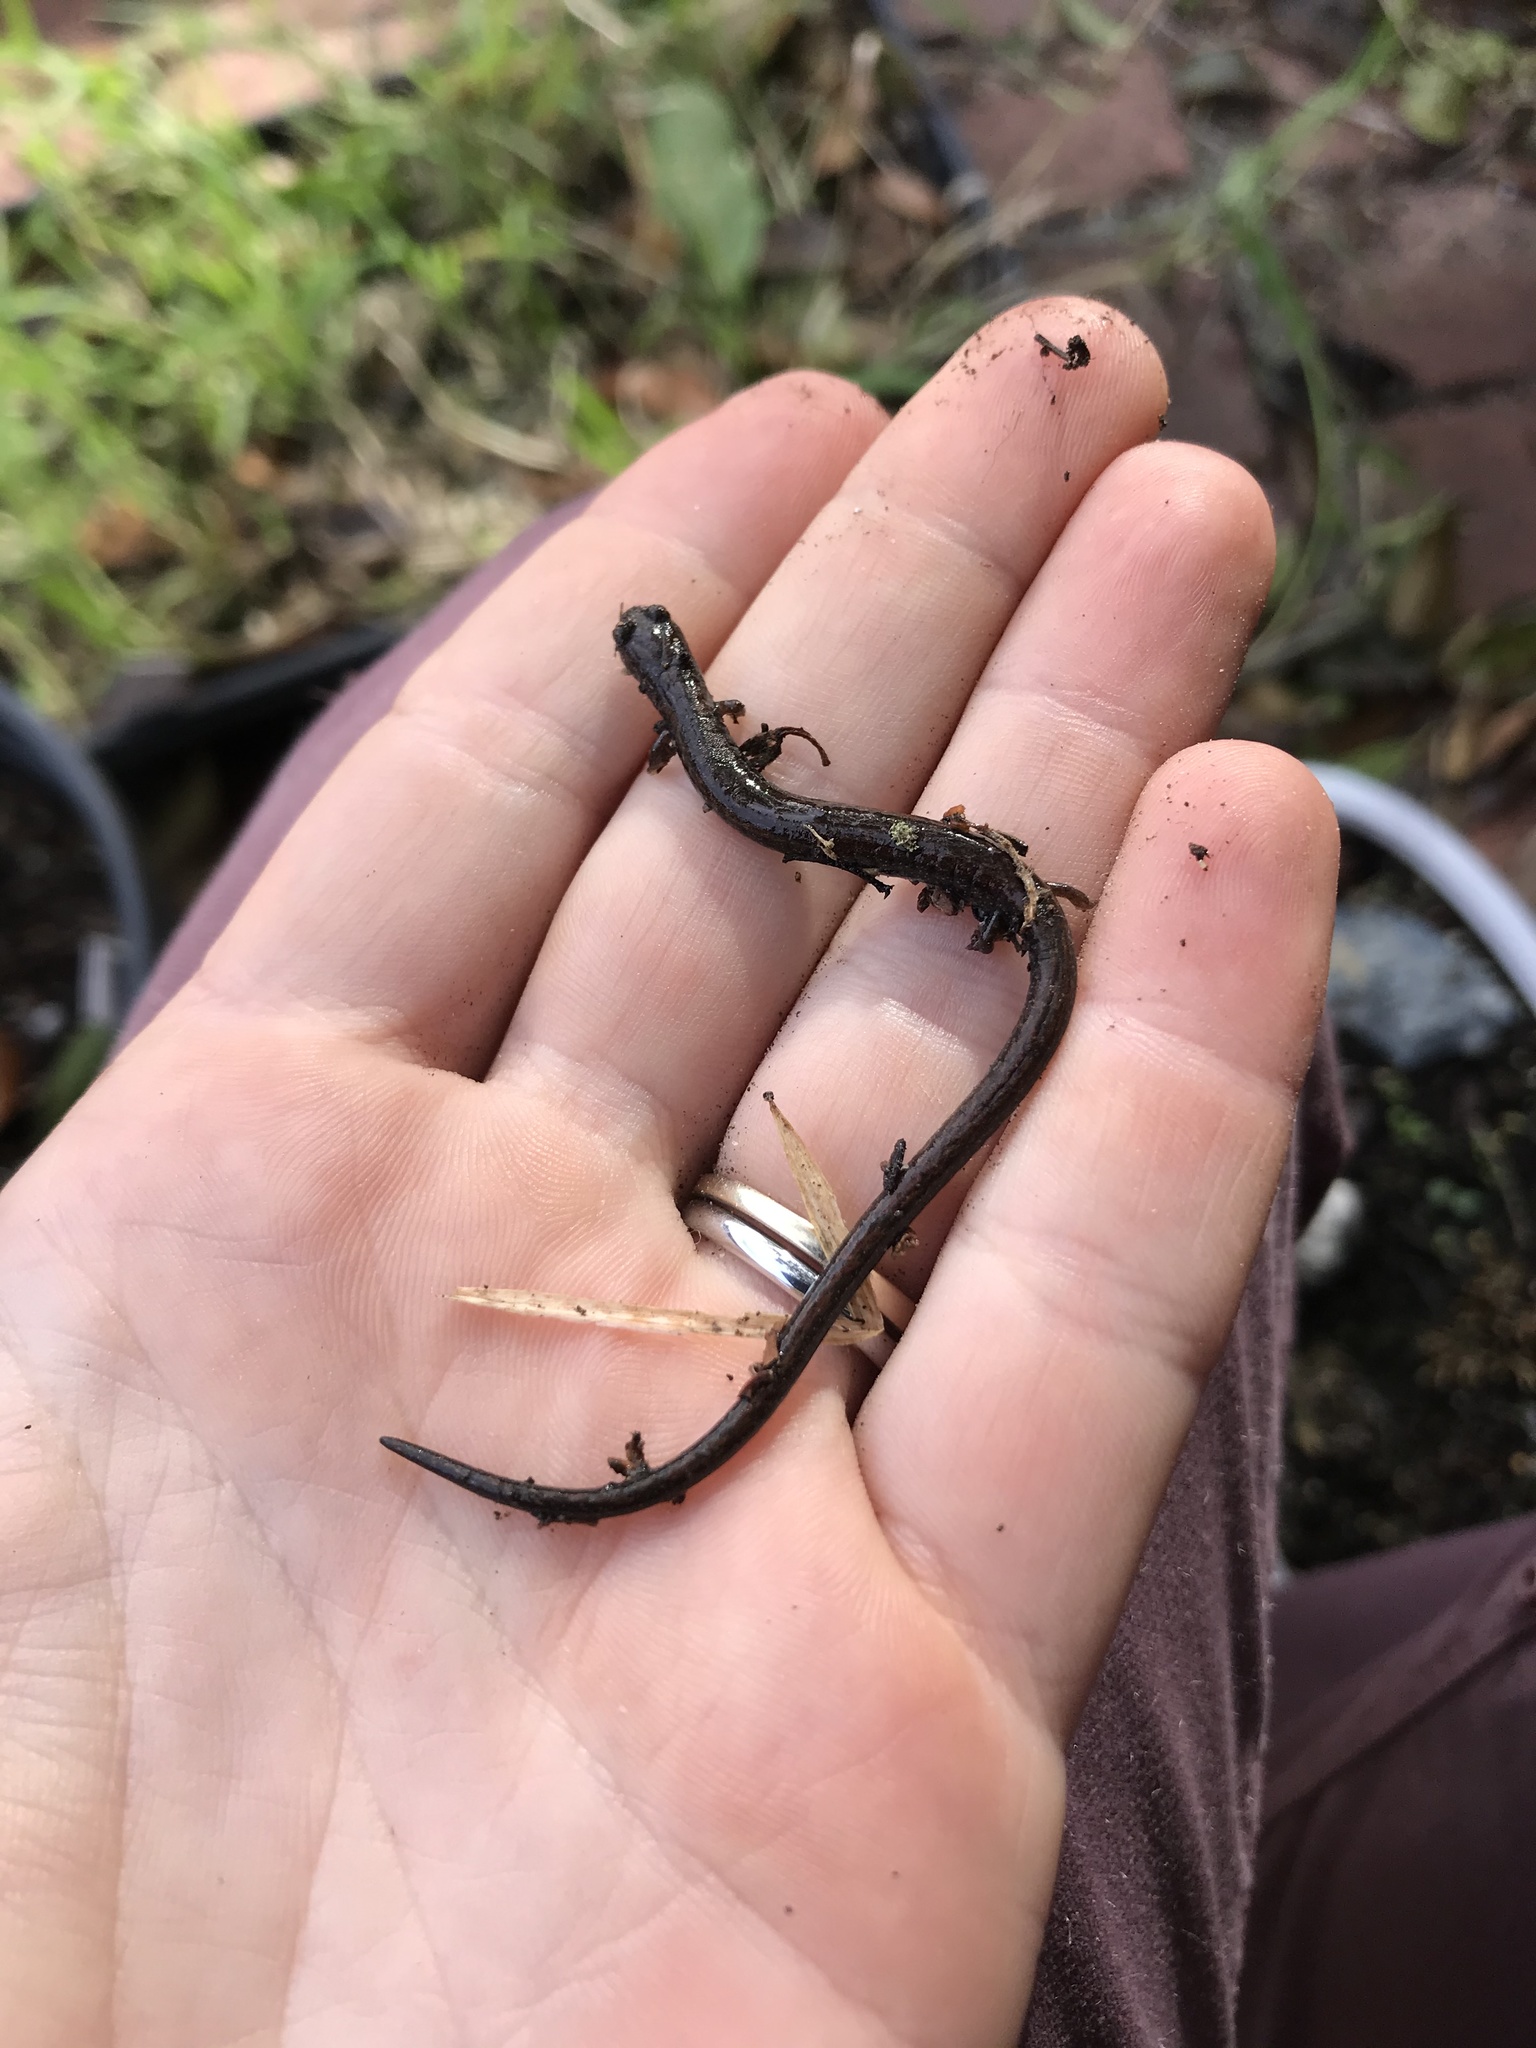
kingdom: Animalia
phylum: Chordata
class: Amphibia
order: Caudata
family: Plethodontidae
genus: Batrachoseps
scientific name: Batrachoseps nigriventris
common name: Black-bellied slender salamander
